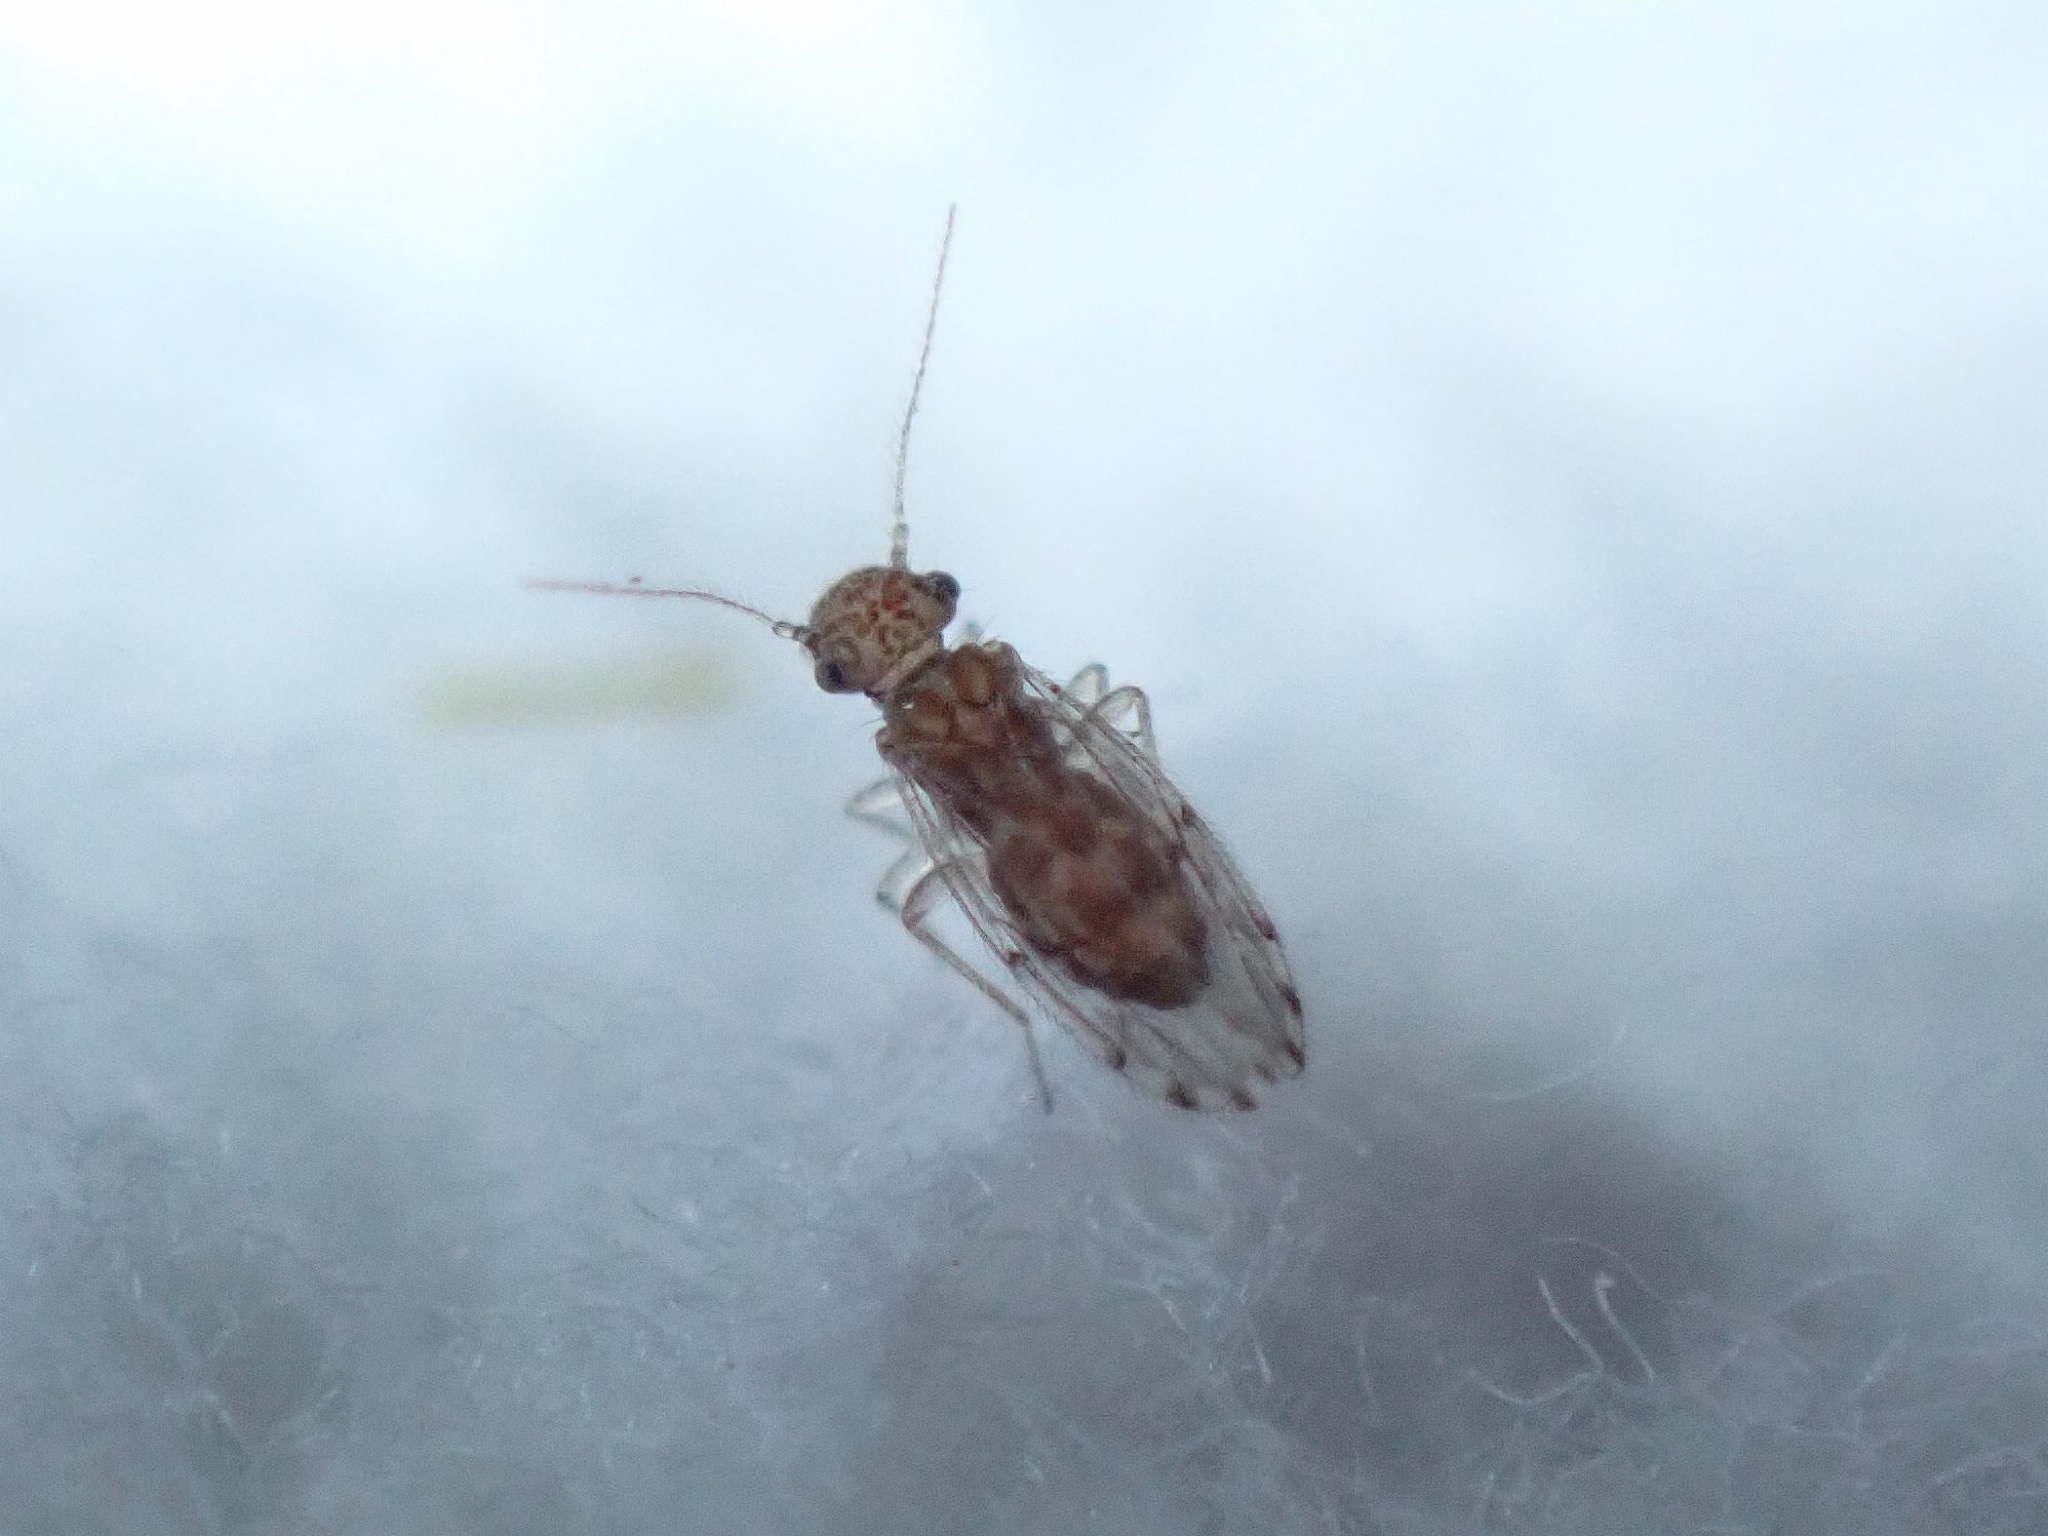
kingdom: Animalia
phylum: Arthropoda
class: Insecta
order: Psocodea
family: Ectopsocidae
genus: Ectopsocus
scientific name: Ectopsocus strauchi
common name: Medium-sized bark louse
